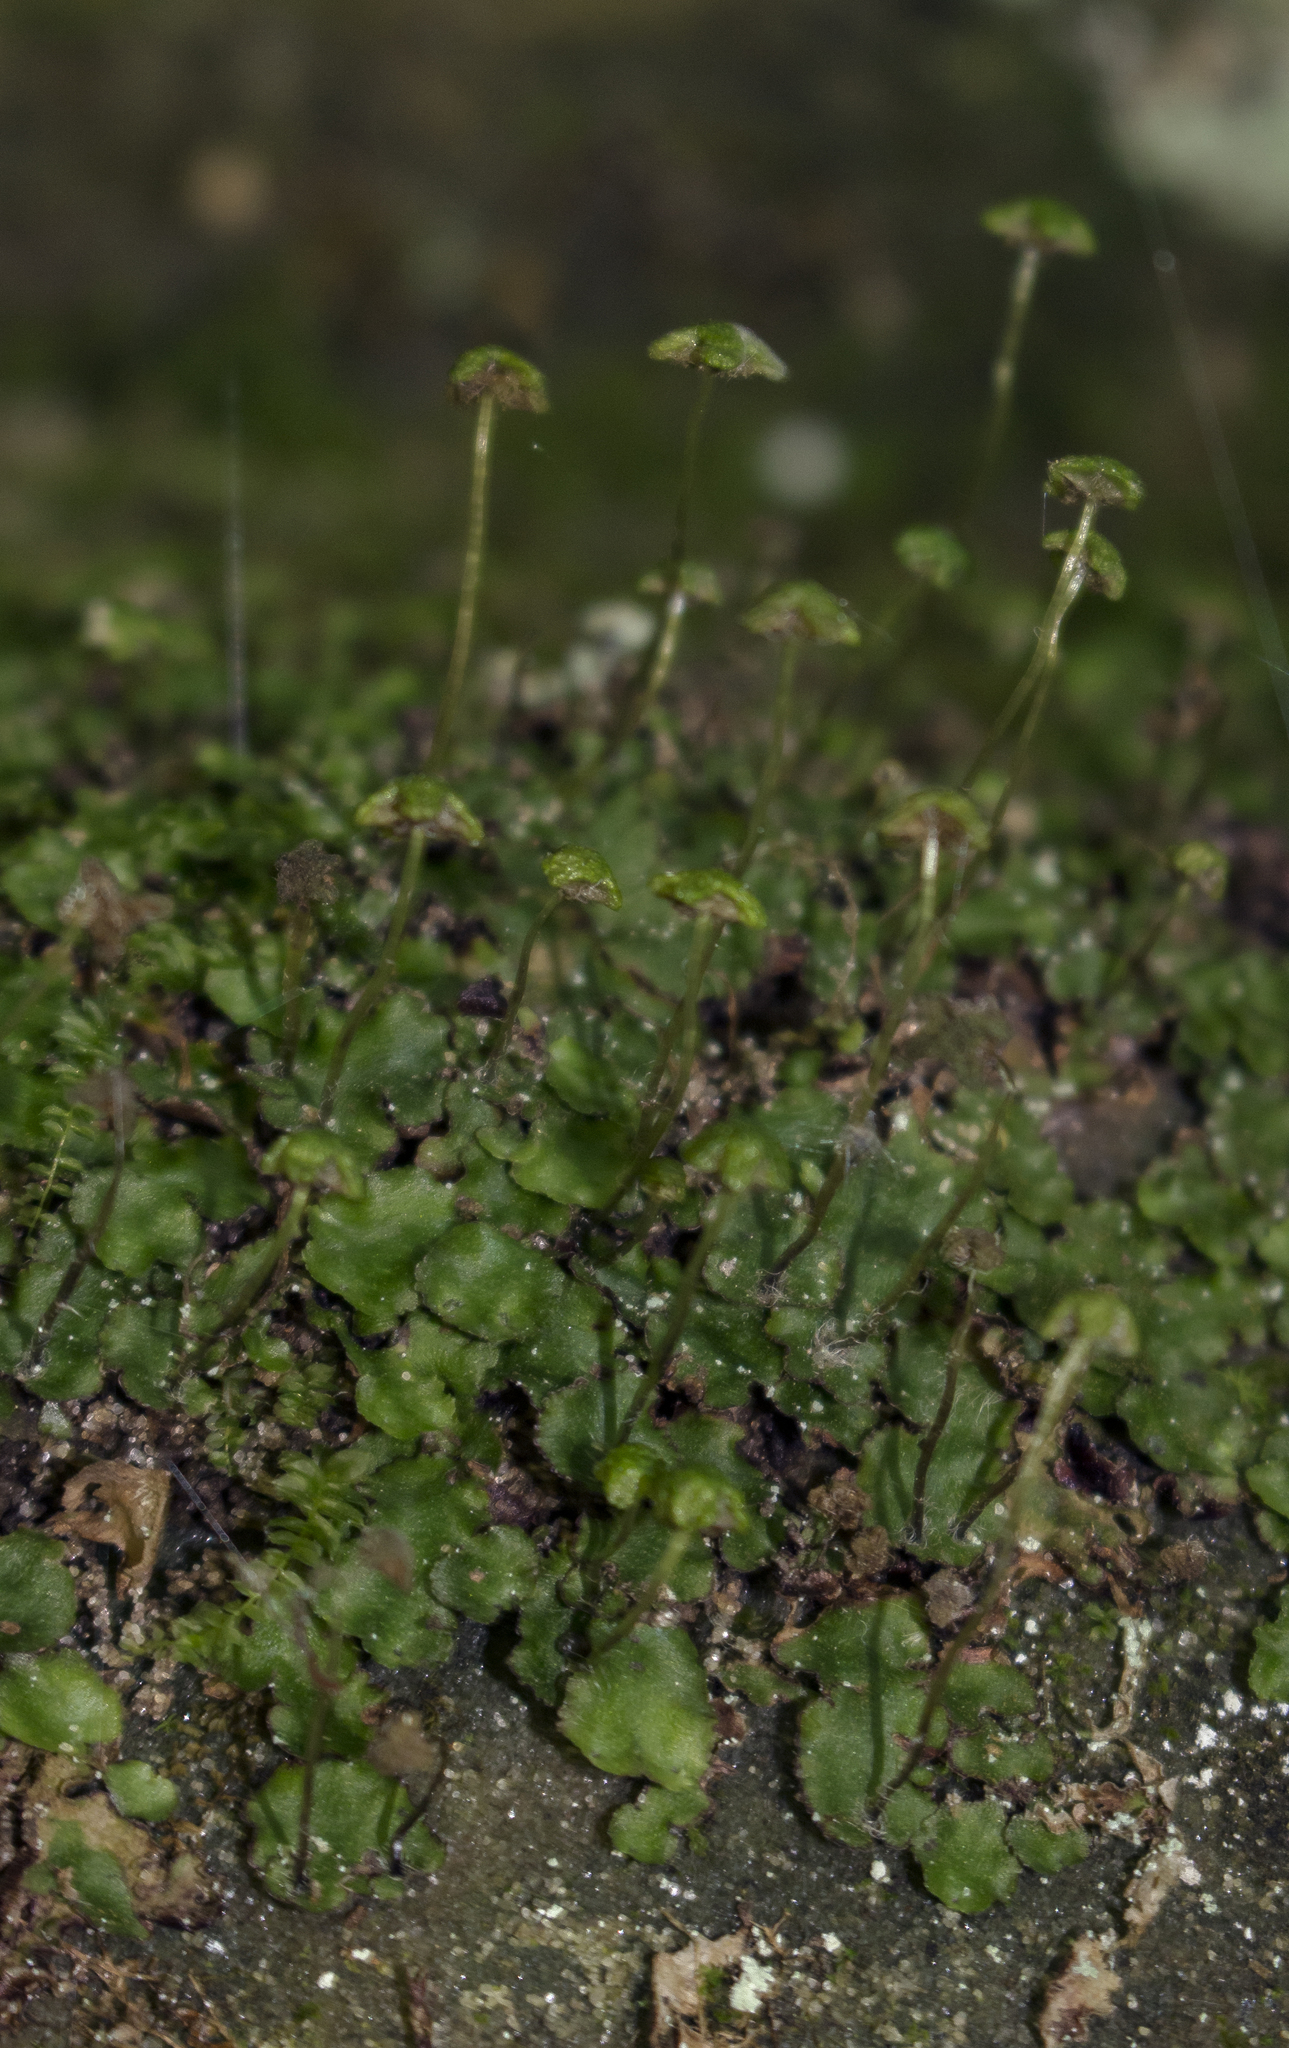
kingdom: Plantae
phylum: Marchantiophyta
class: Marchantiopsida
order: Marchantiales
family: Aytoniaceae
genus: Reboulia
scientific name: Reboulia hemisphaerica
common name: Purple-margined liverwort
